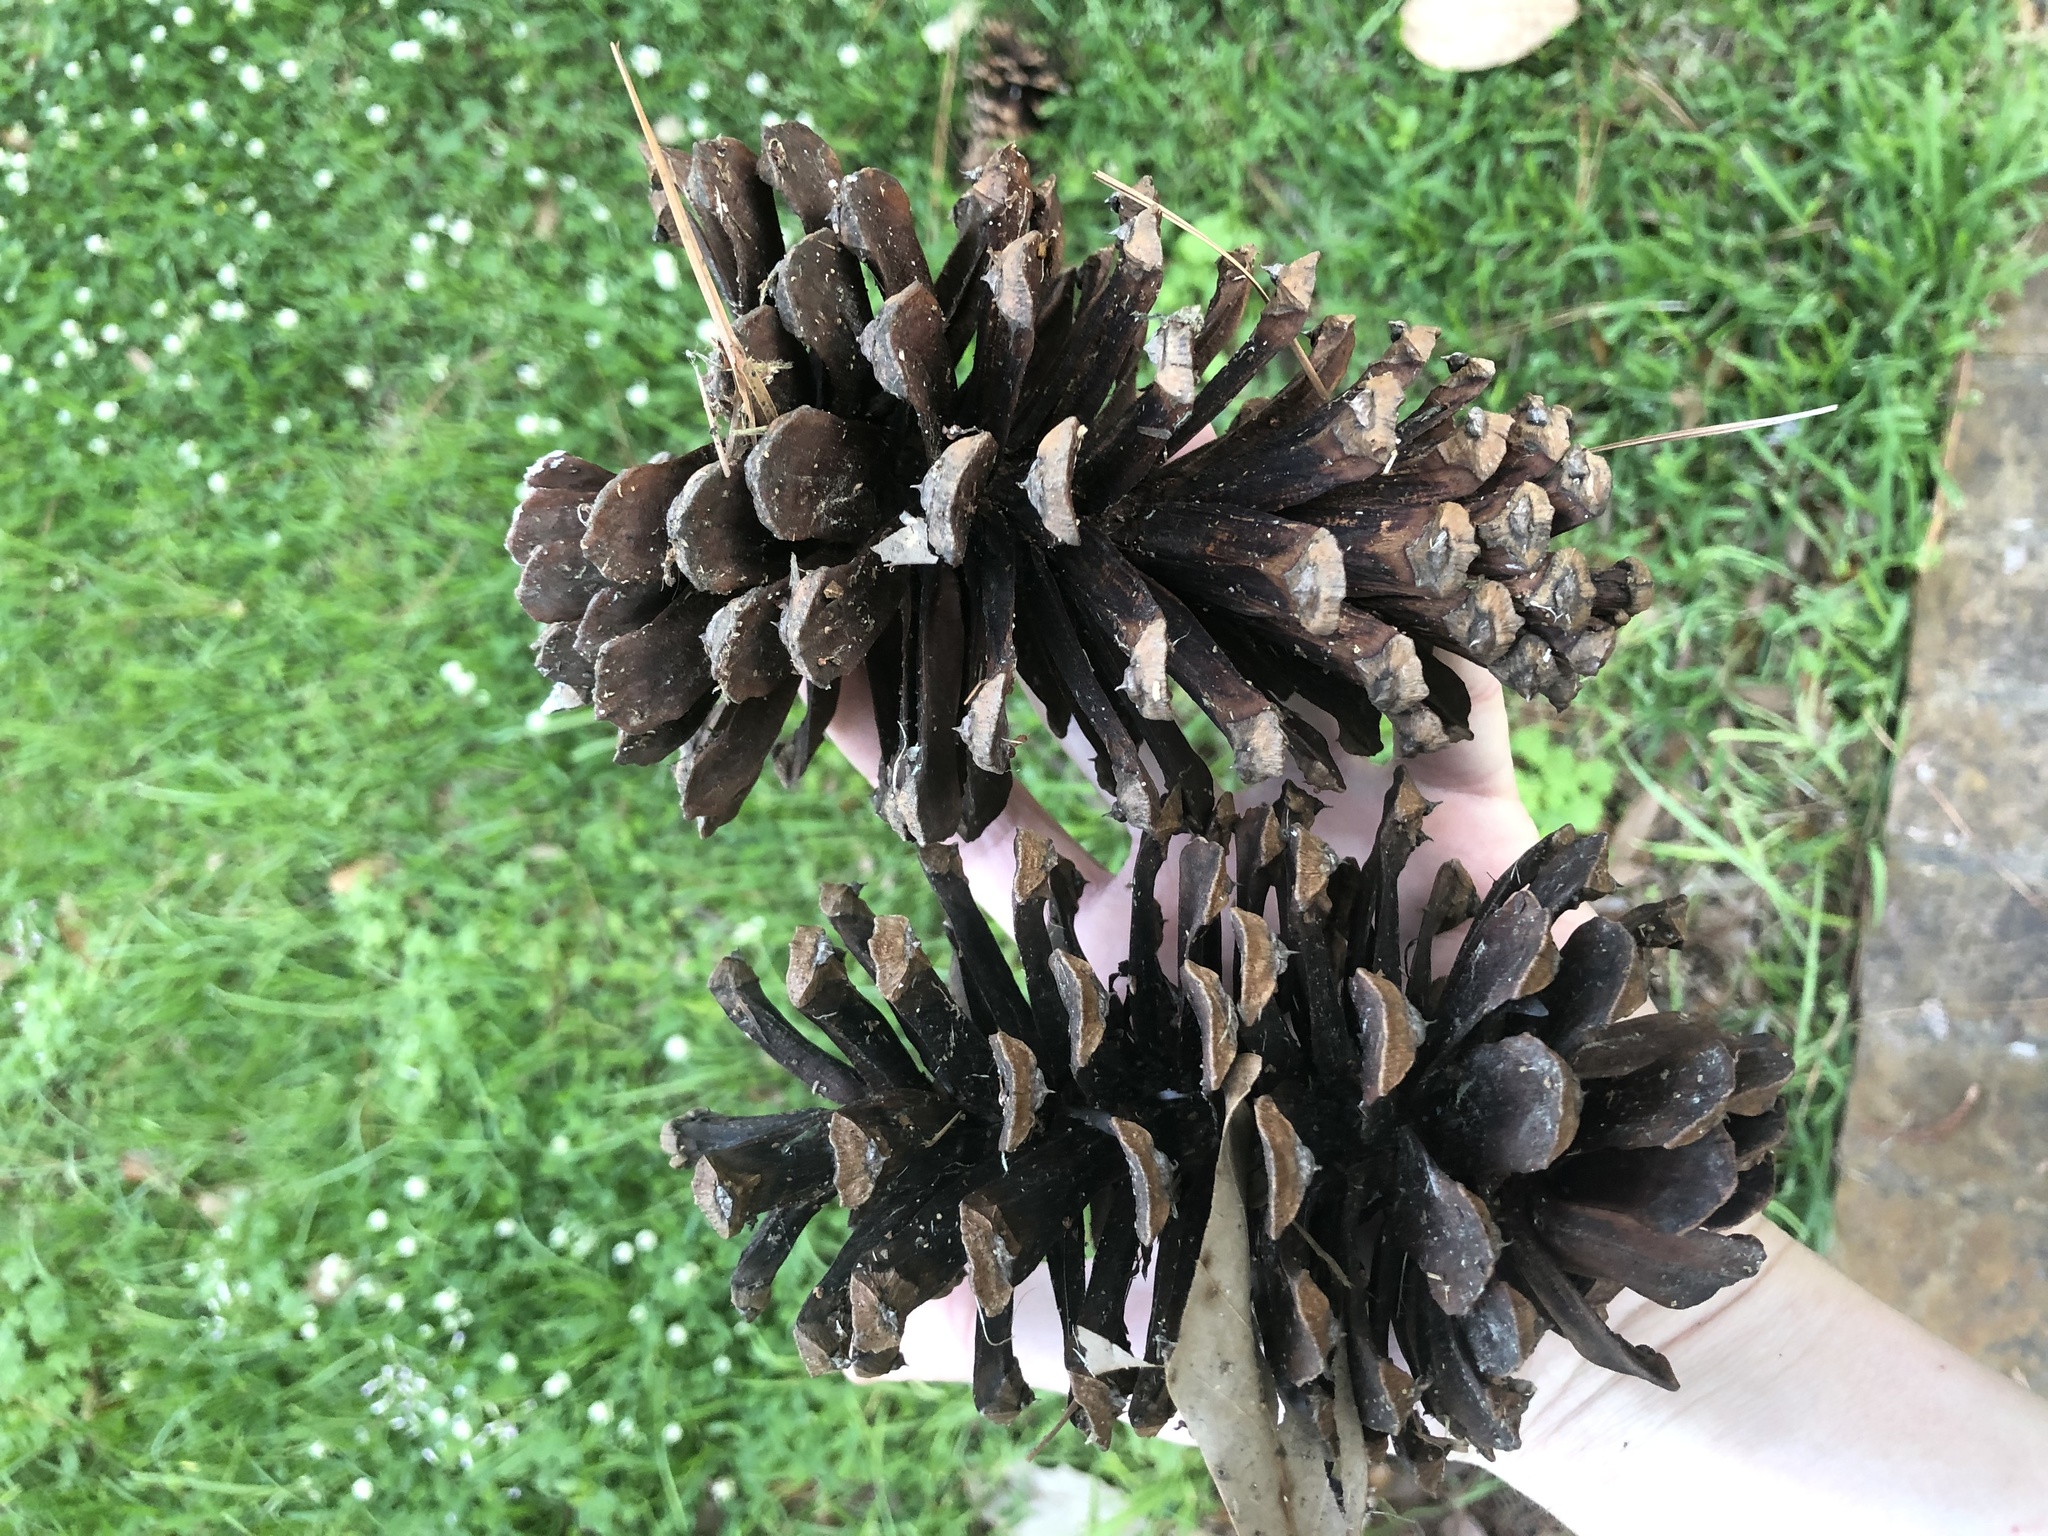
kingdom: Plantae
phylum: Tracheophyta
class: Pinopsida
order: Pinales
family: Pinaceae
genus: Pinus
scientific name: Pinus palustris
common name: Longleaf pine
